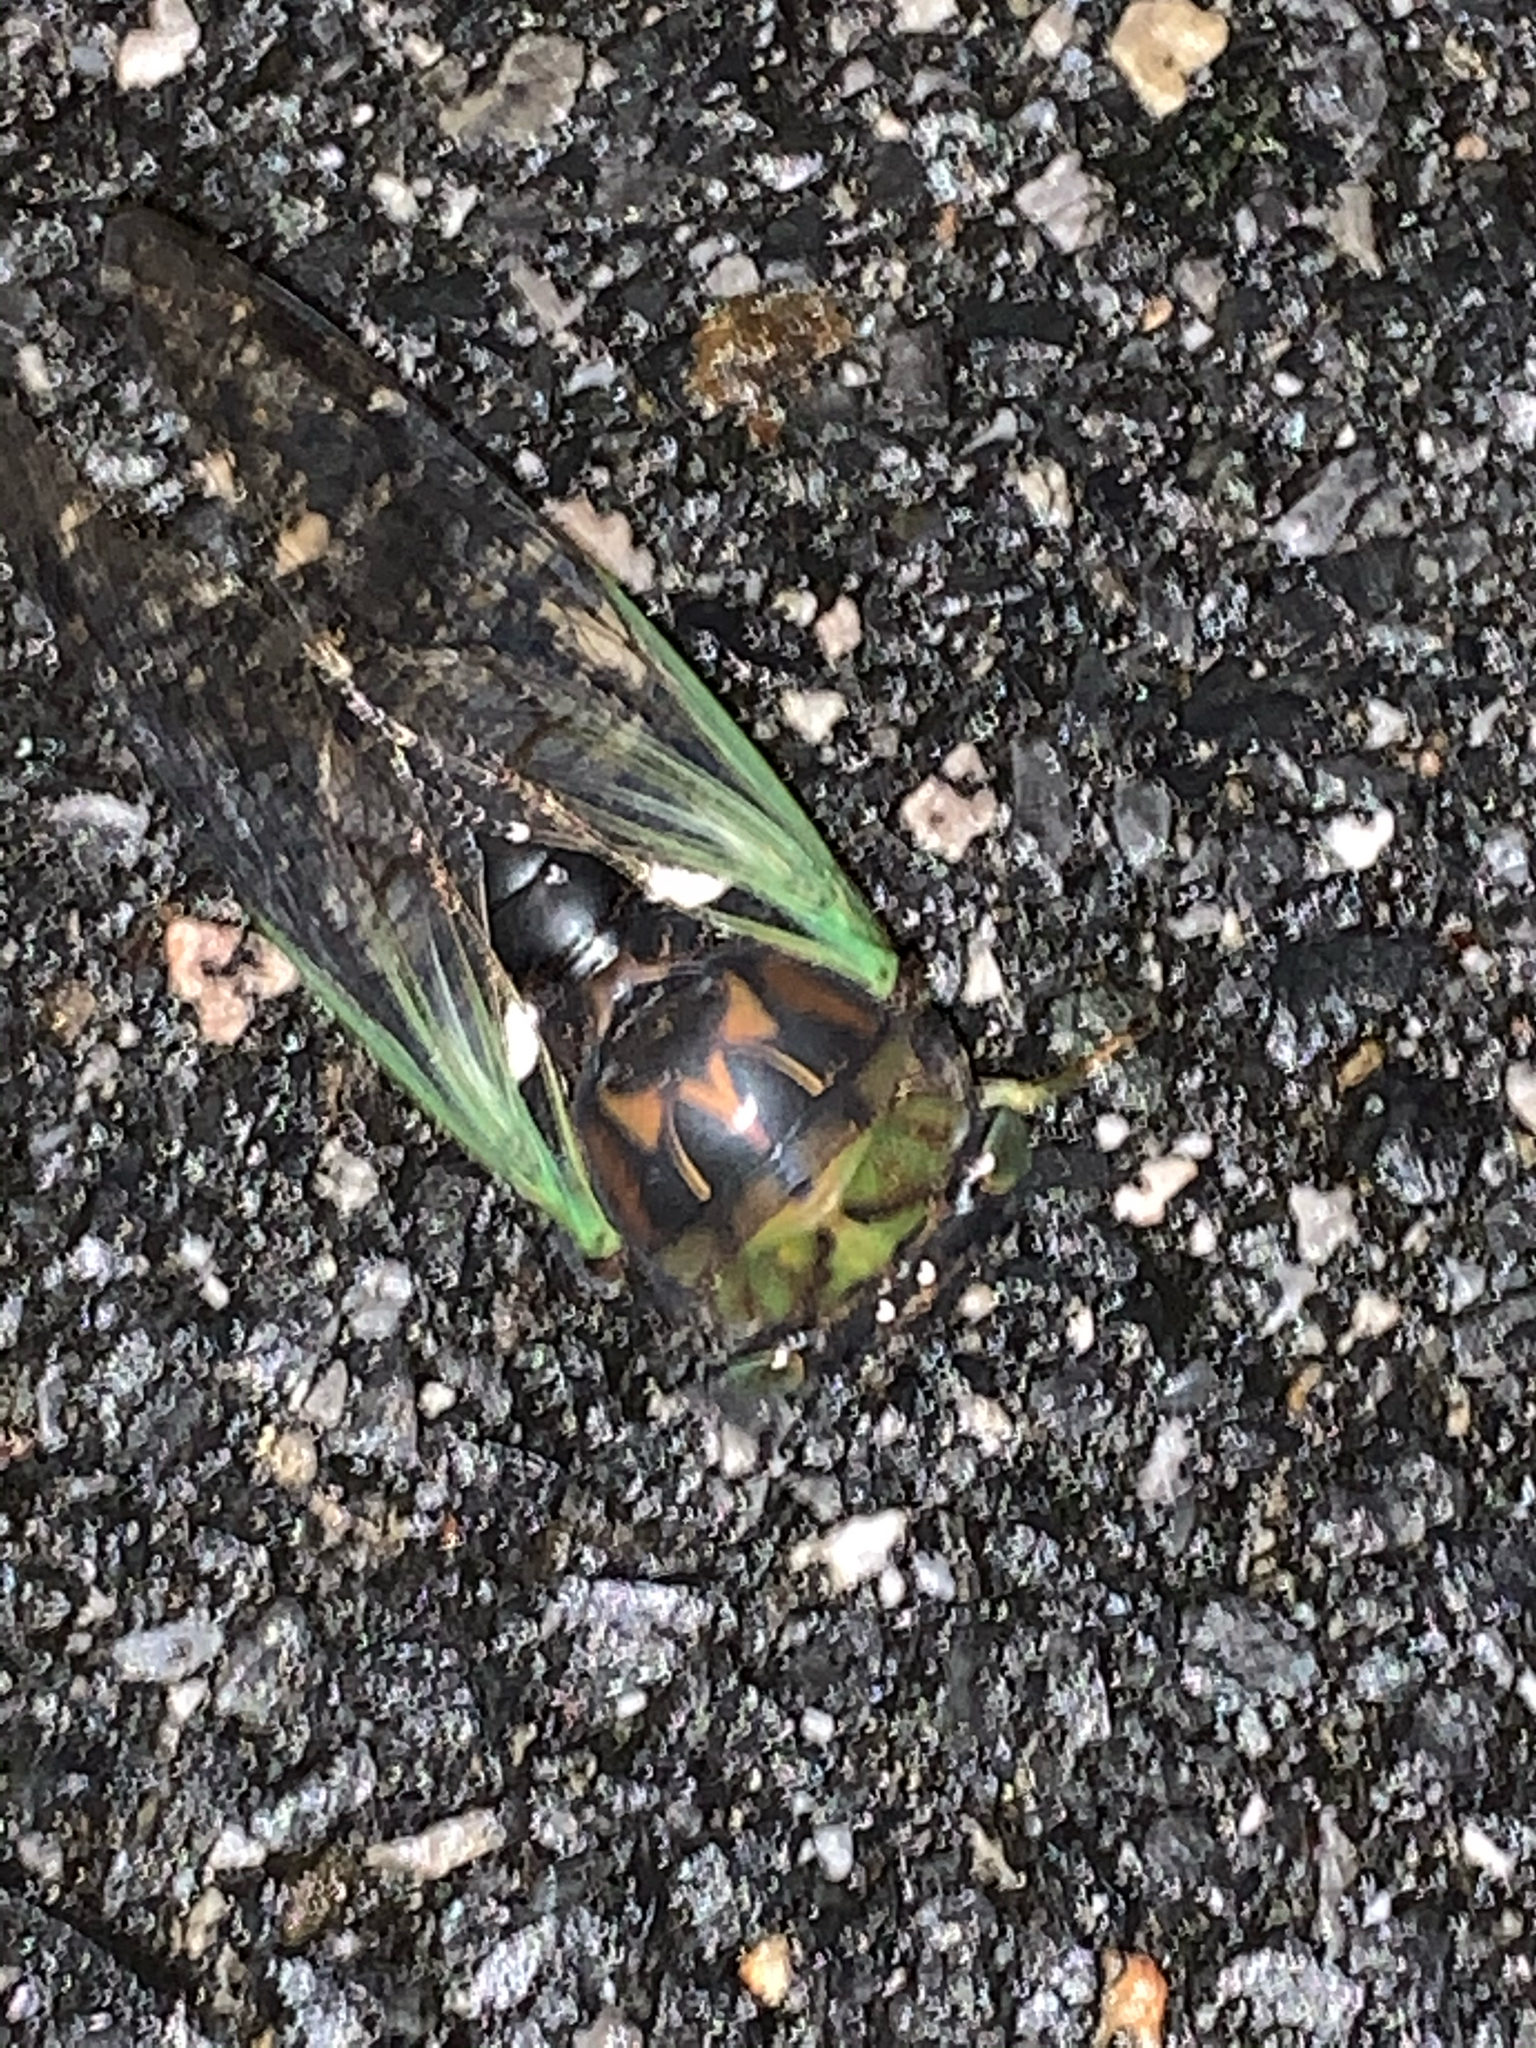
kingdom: Animalia
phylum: Arthropoda
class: Insecta
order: Hemiptera
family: Cicadidae
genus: Neotibicen
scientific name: Neotibicen tibicen
